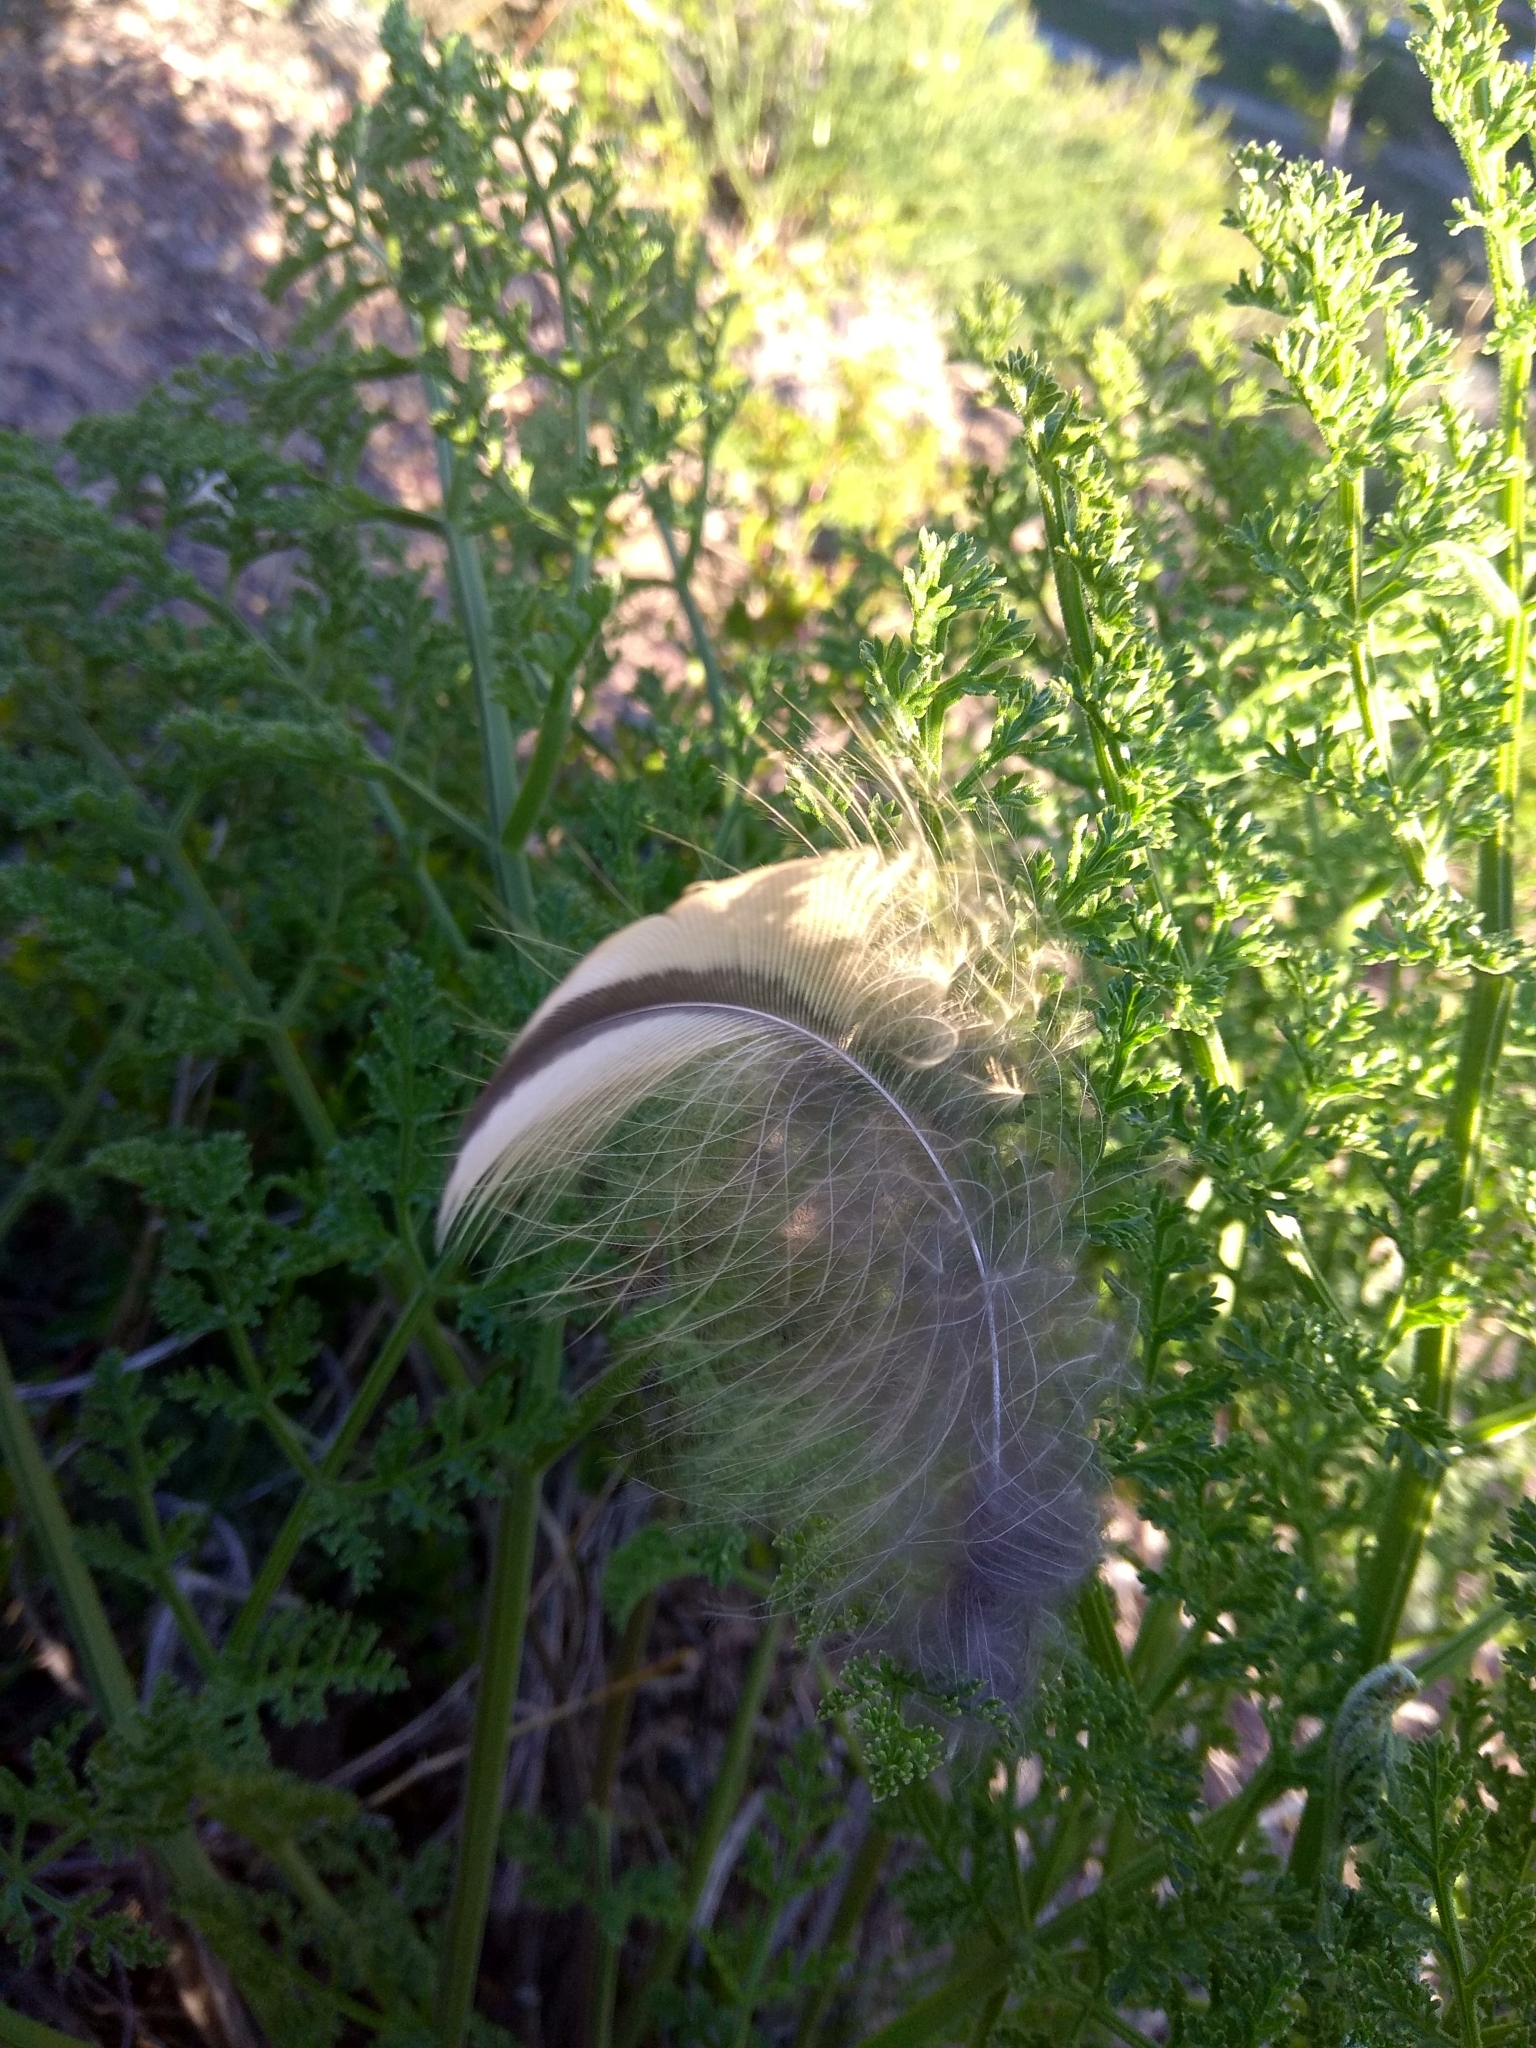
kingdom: Animalia
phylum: Chordata
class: Aves
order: Strigiformes
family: Strigidae
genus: Bubo
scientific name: Bubo bubo
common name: Eurasian eagle-owl
